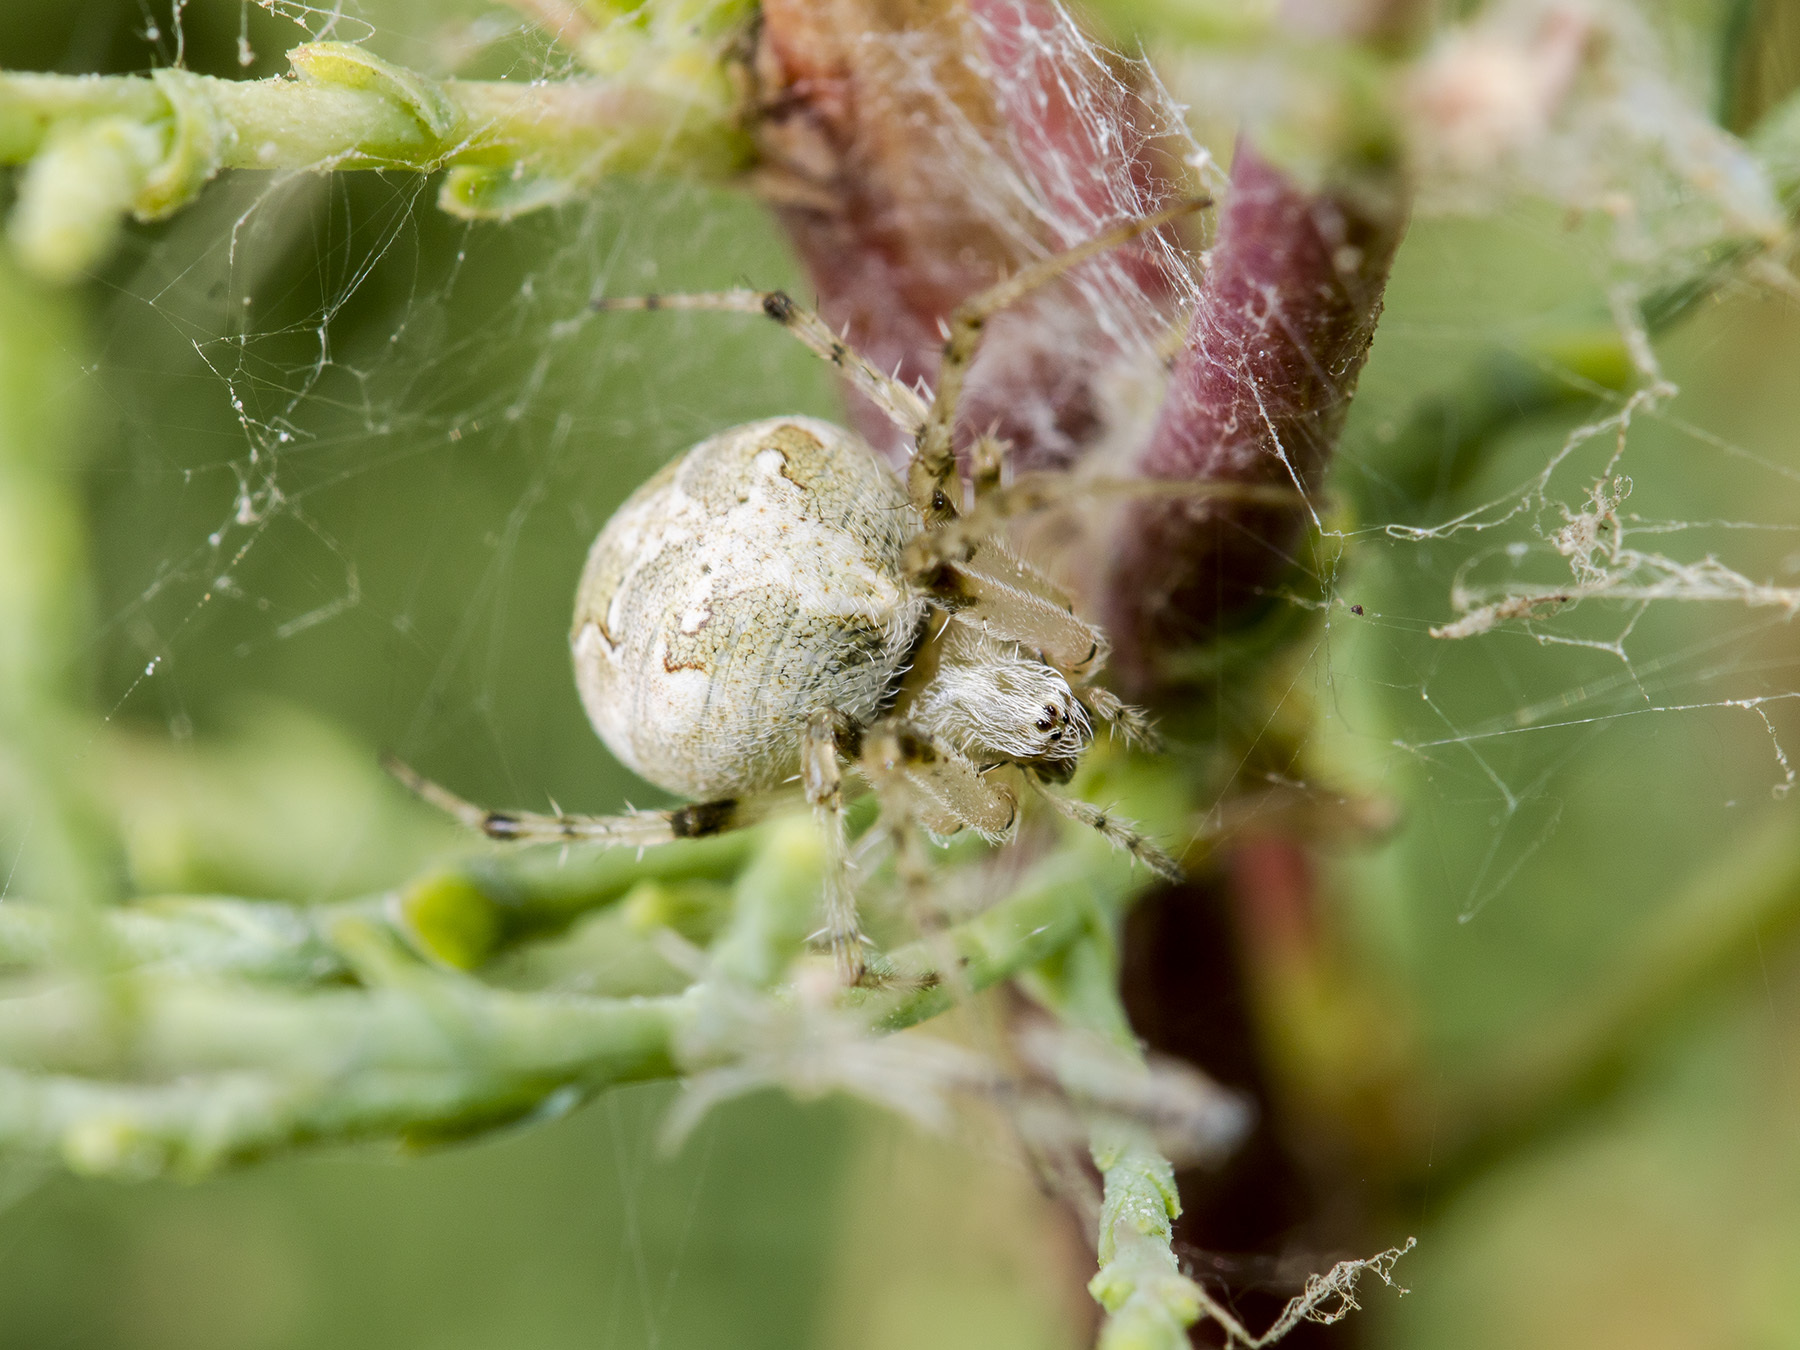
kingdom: Animalia
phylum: Arthropoda
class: Arachnida
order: Araneae
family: Araneidae
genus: Araneus
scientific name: Araneus pallasi
